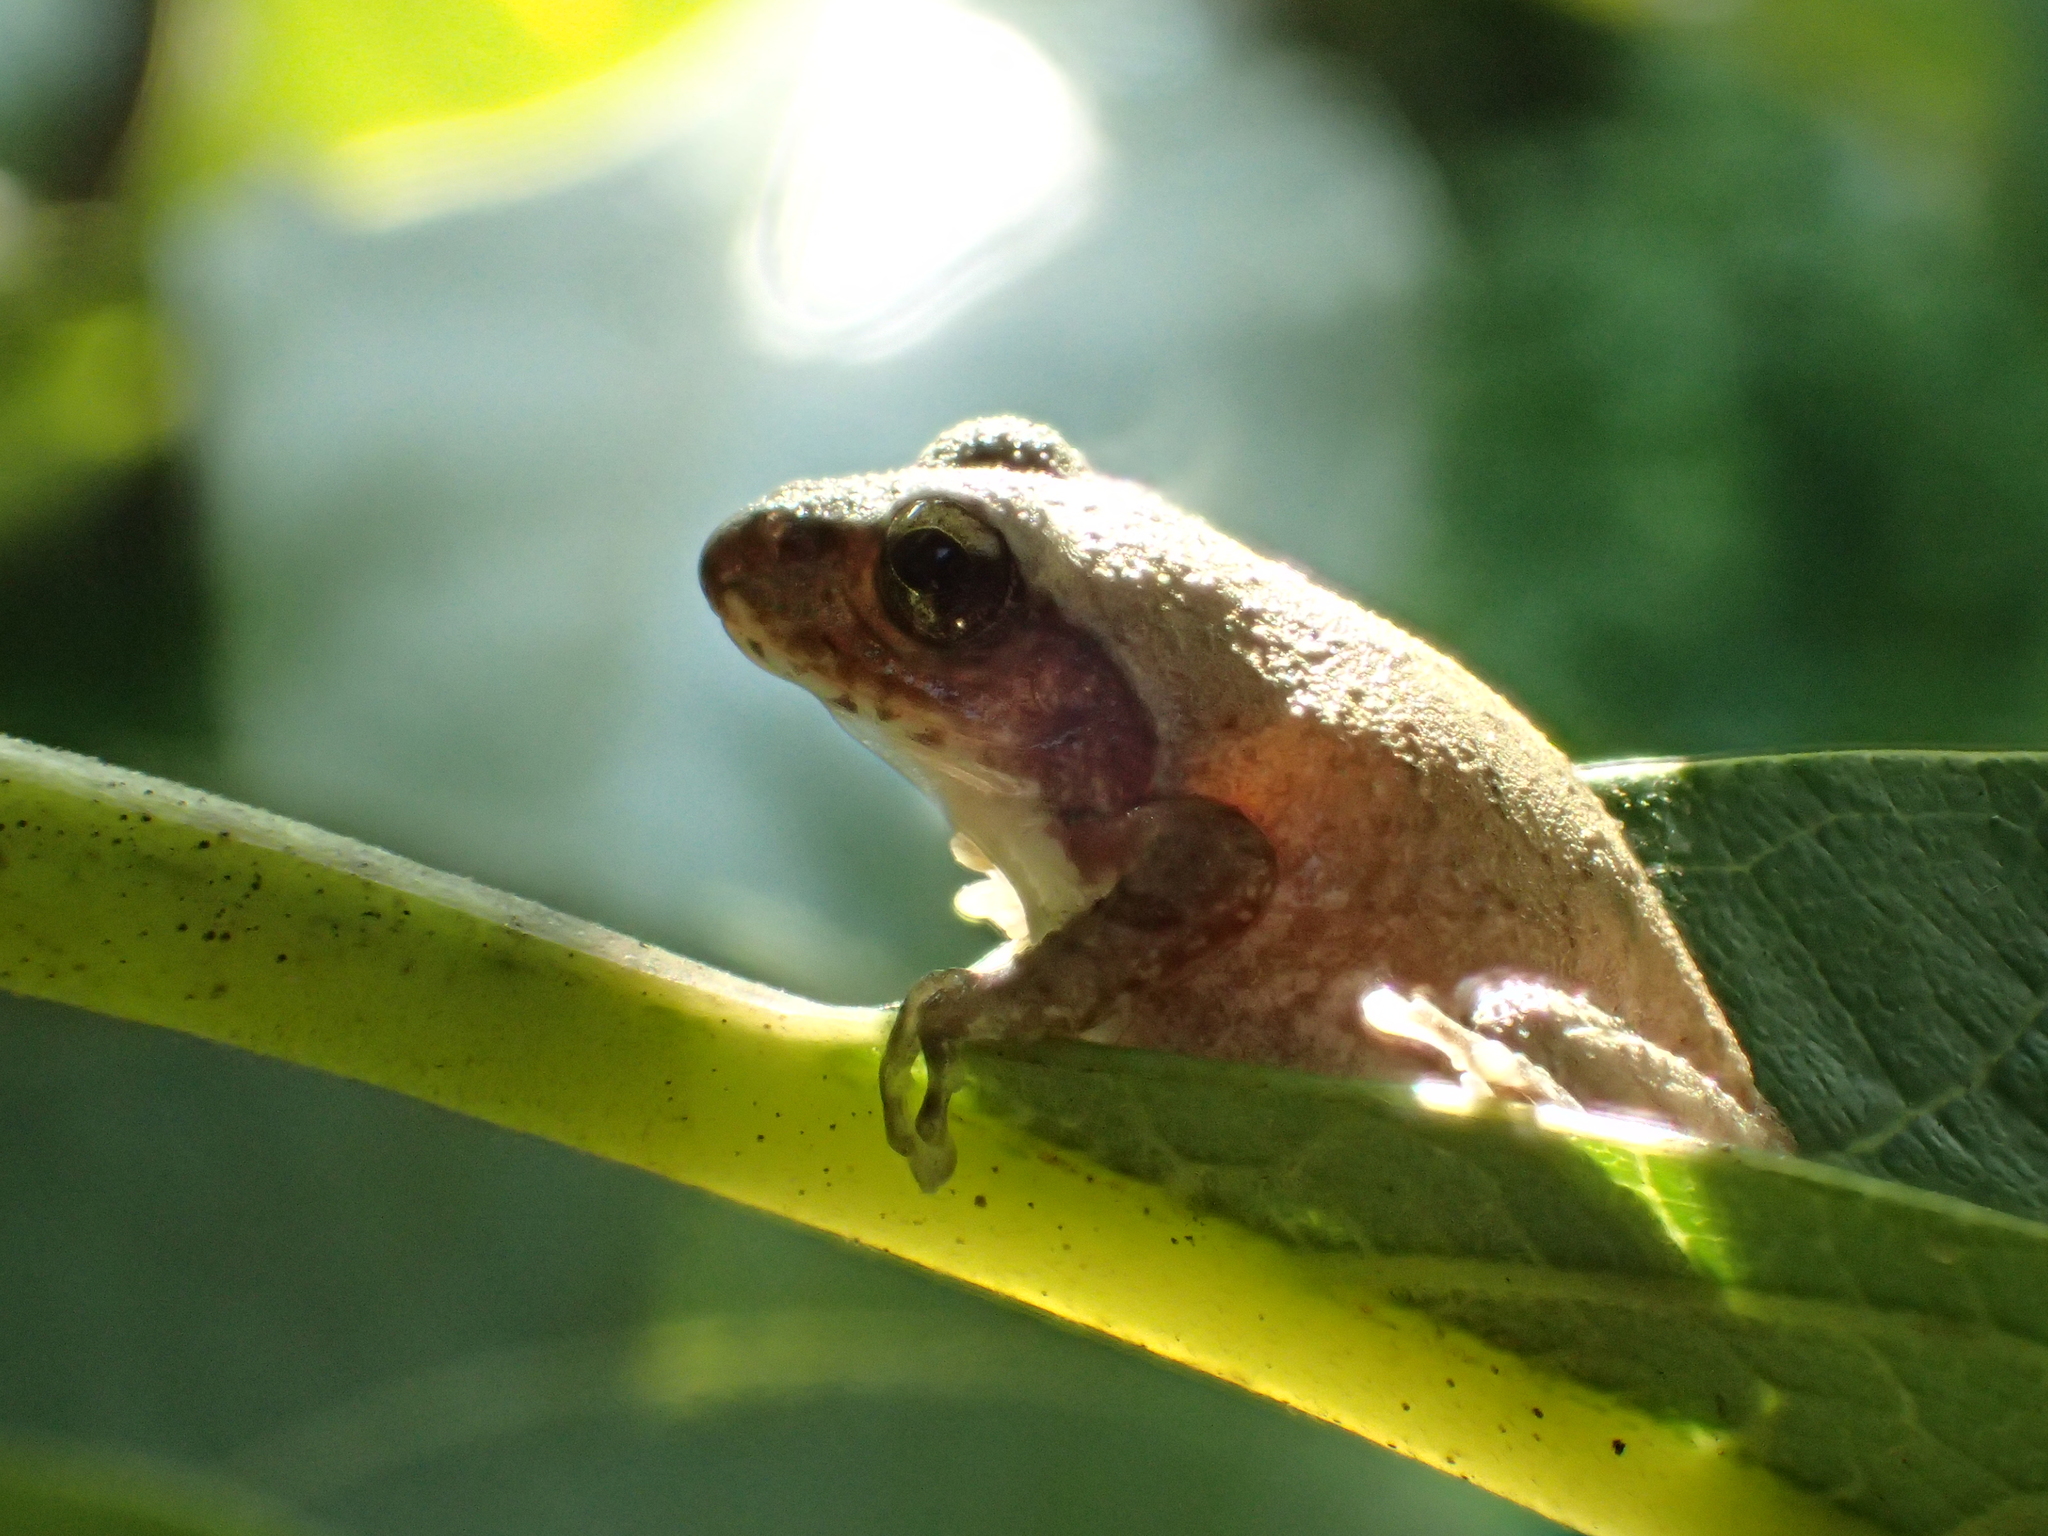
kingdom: Animalia
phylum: Chordata
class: Amphibia
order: Anura
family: Rhacophoridae
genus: Buergeria
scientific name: Buergeria robusta
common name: Brown treefrog
